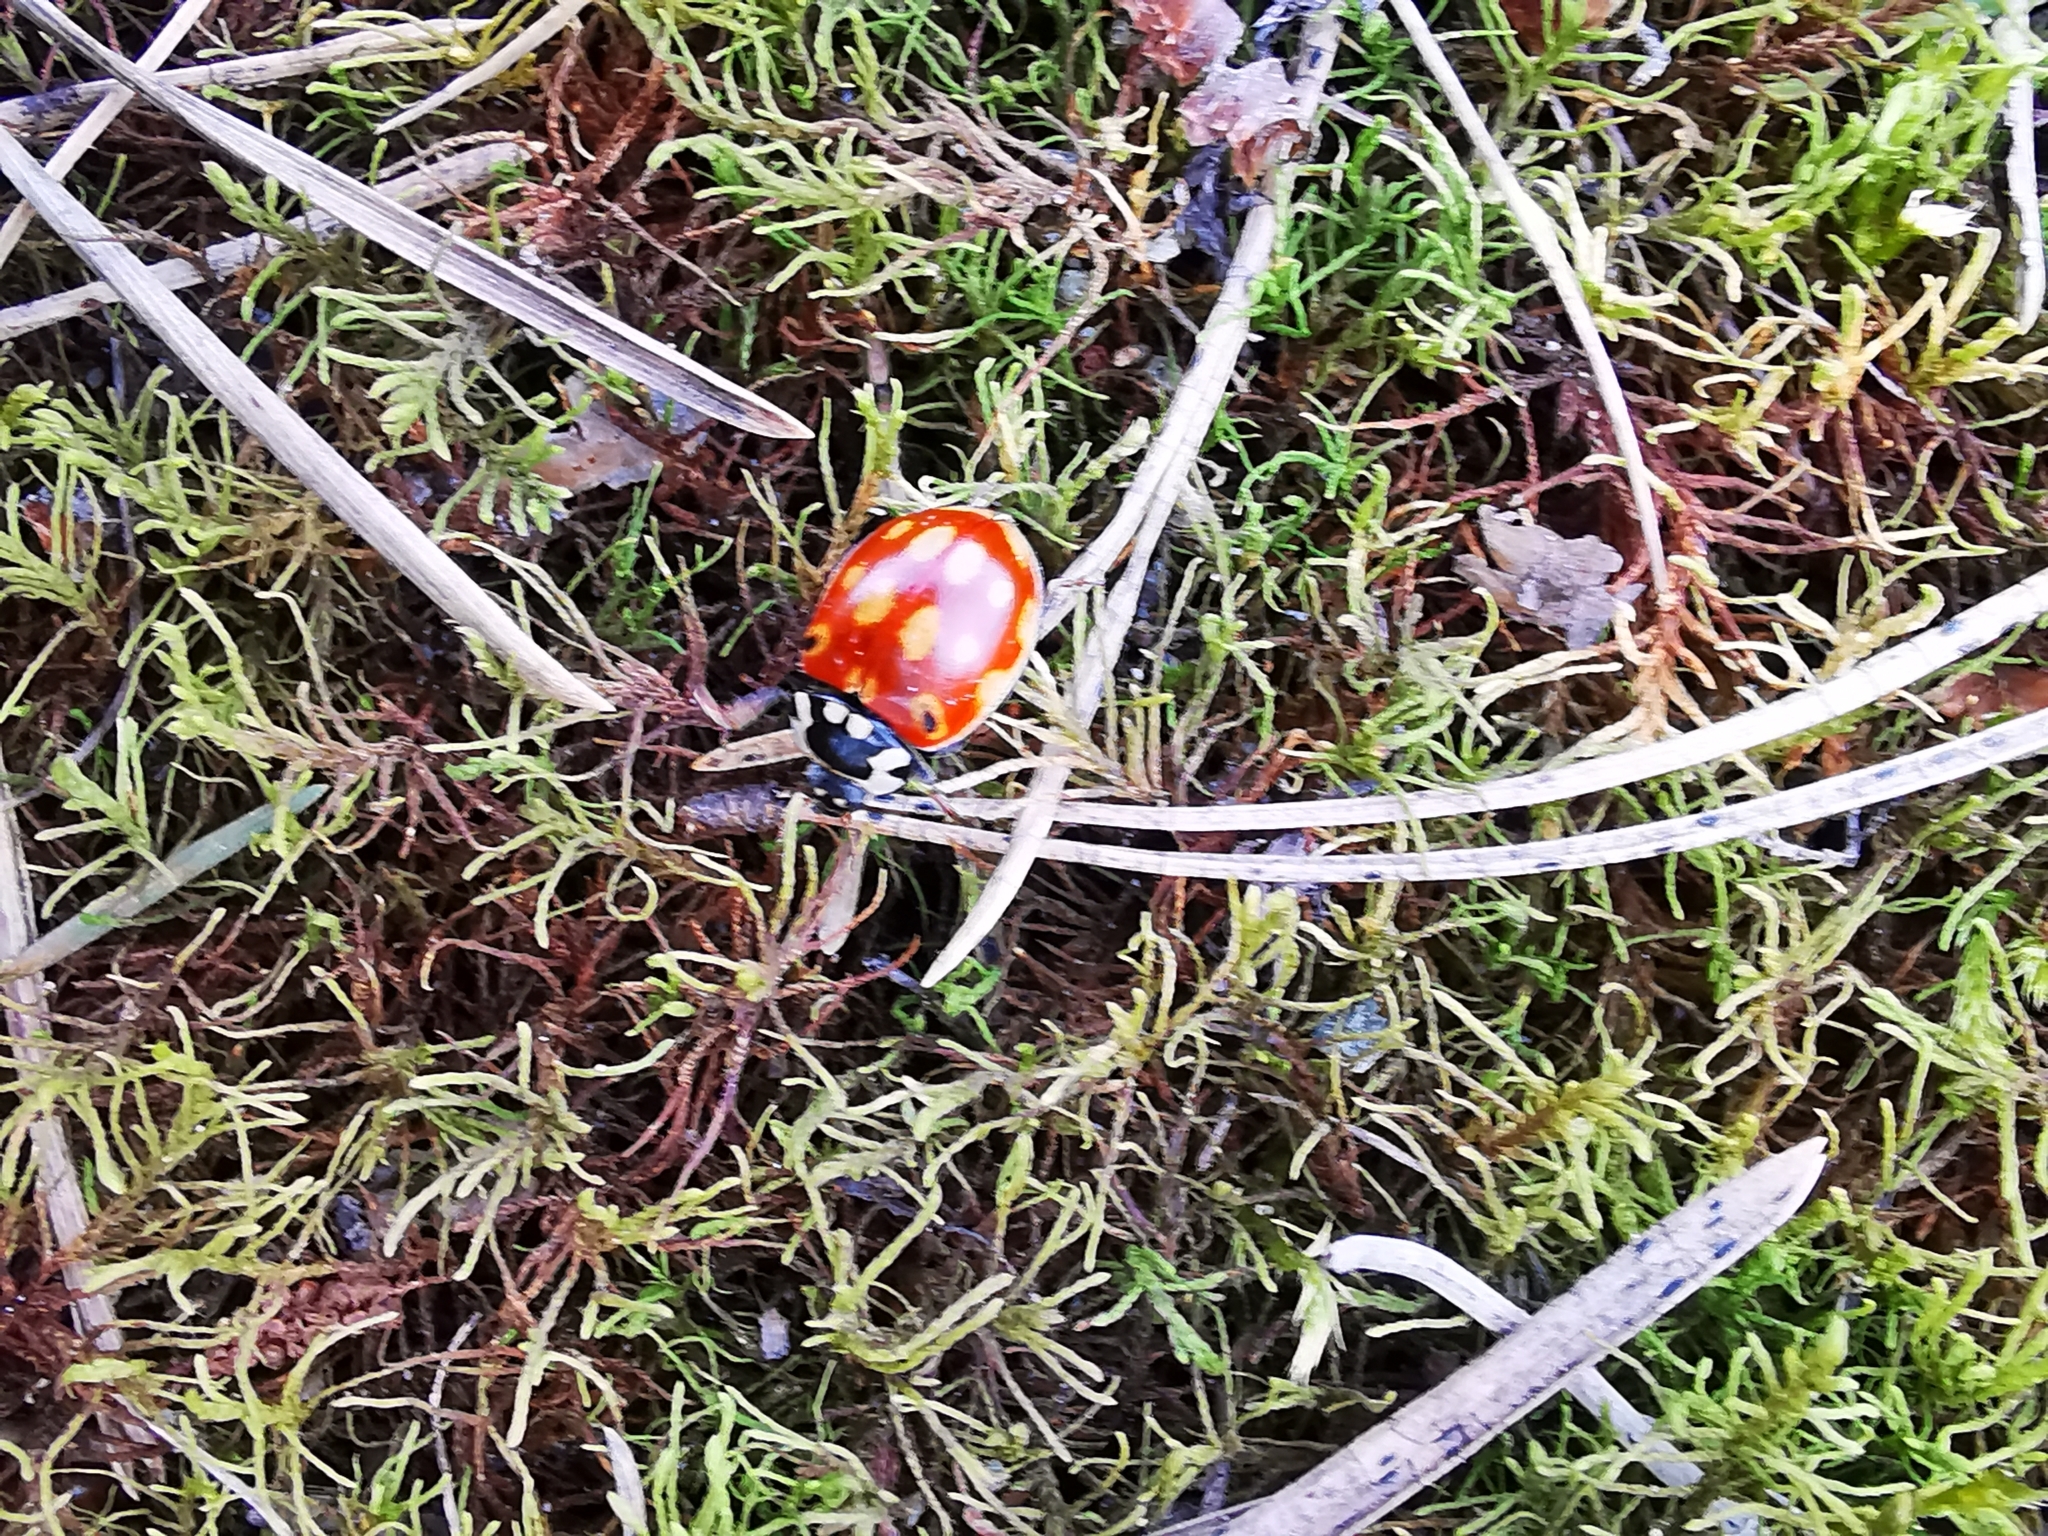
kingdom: Animalia
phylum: Arthropoda
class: Insecta
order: Coleoptera
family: Coccinellidae
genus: Anatis
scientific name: Anatis ocellata
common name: Eyed ladybird
